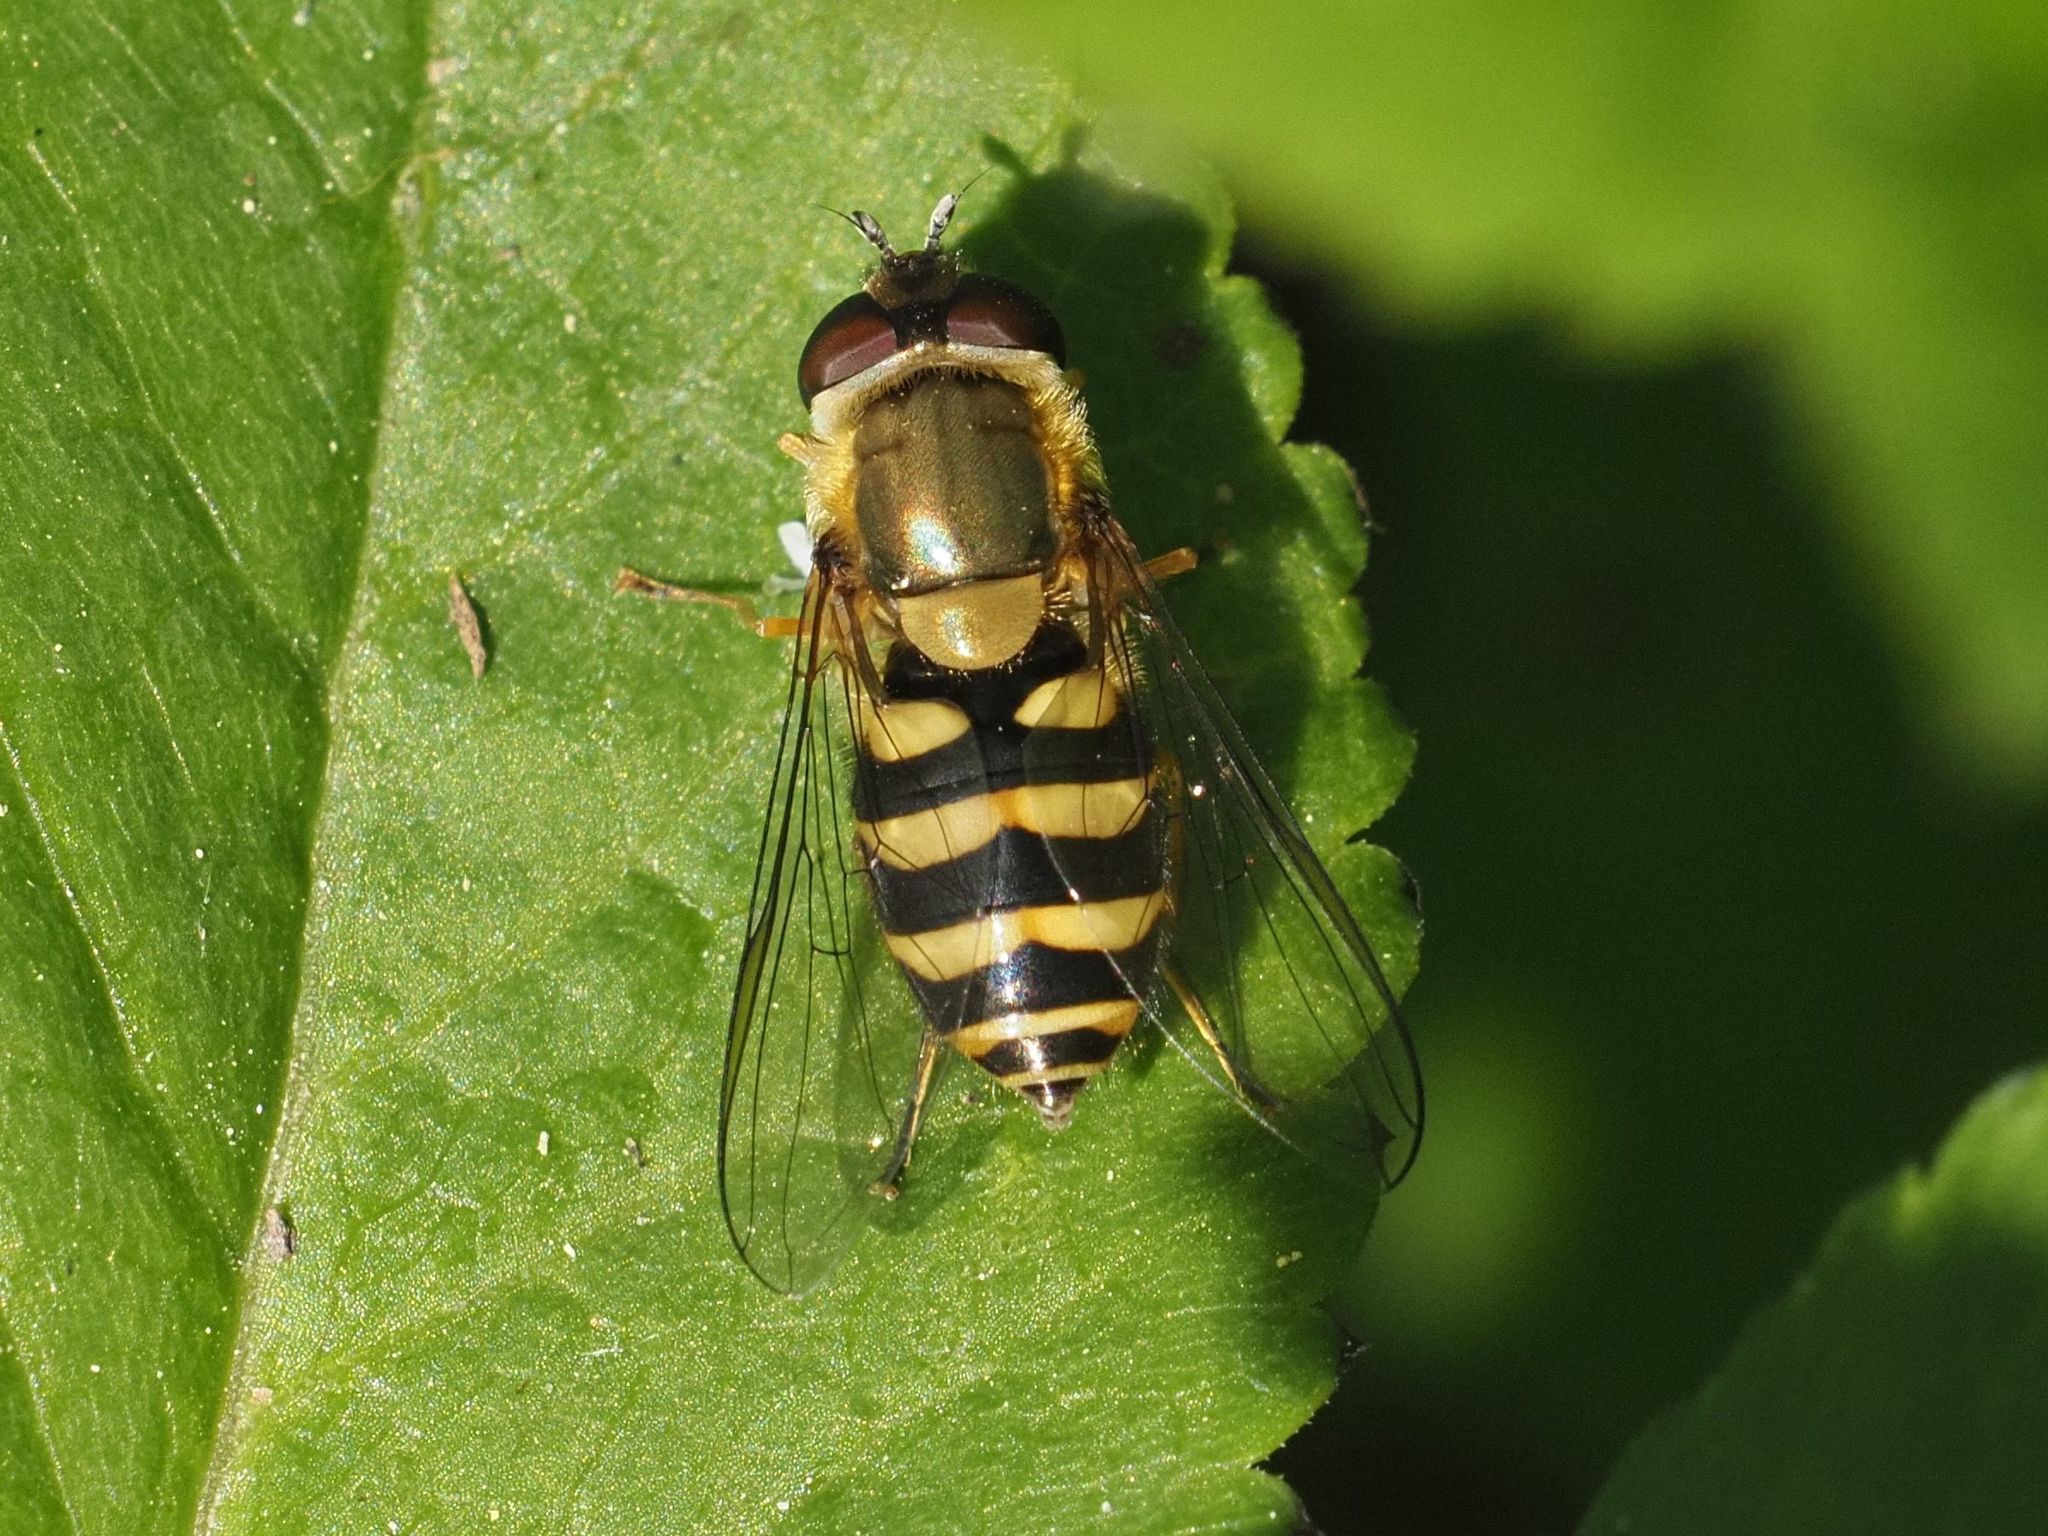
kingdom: Animalia
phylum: Arthropoda
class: Insecta
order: Diptera
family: Syrphidae
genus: Syrphus
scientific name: Syrphus
